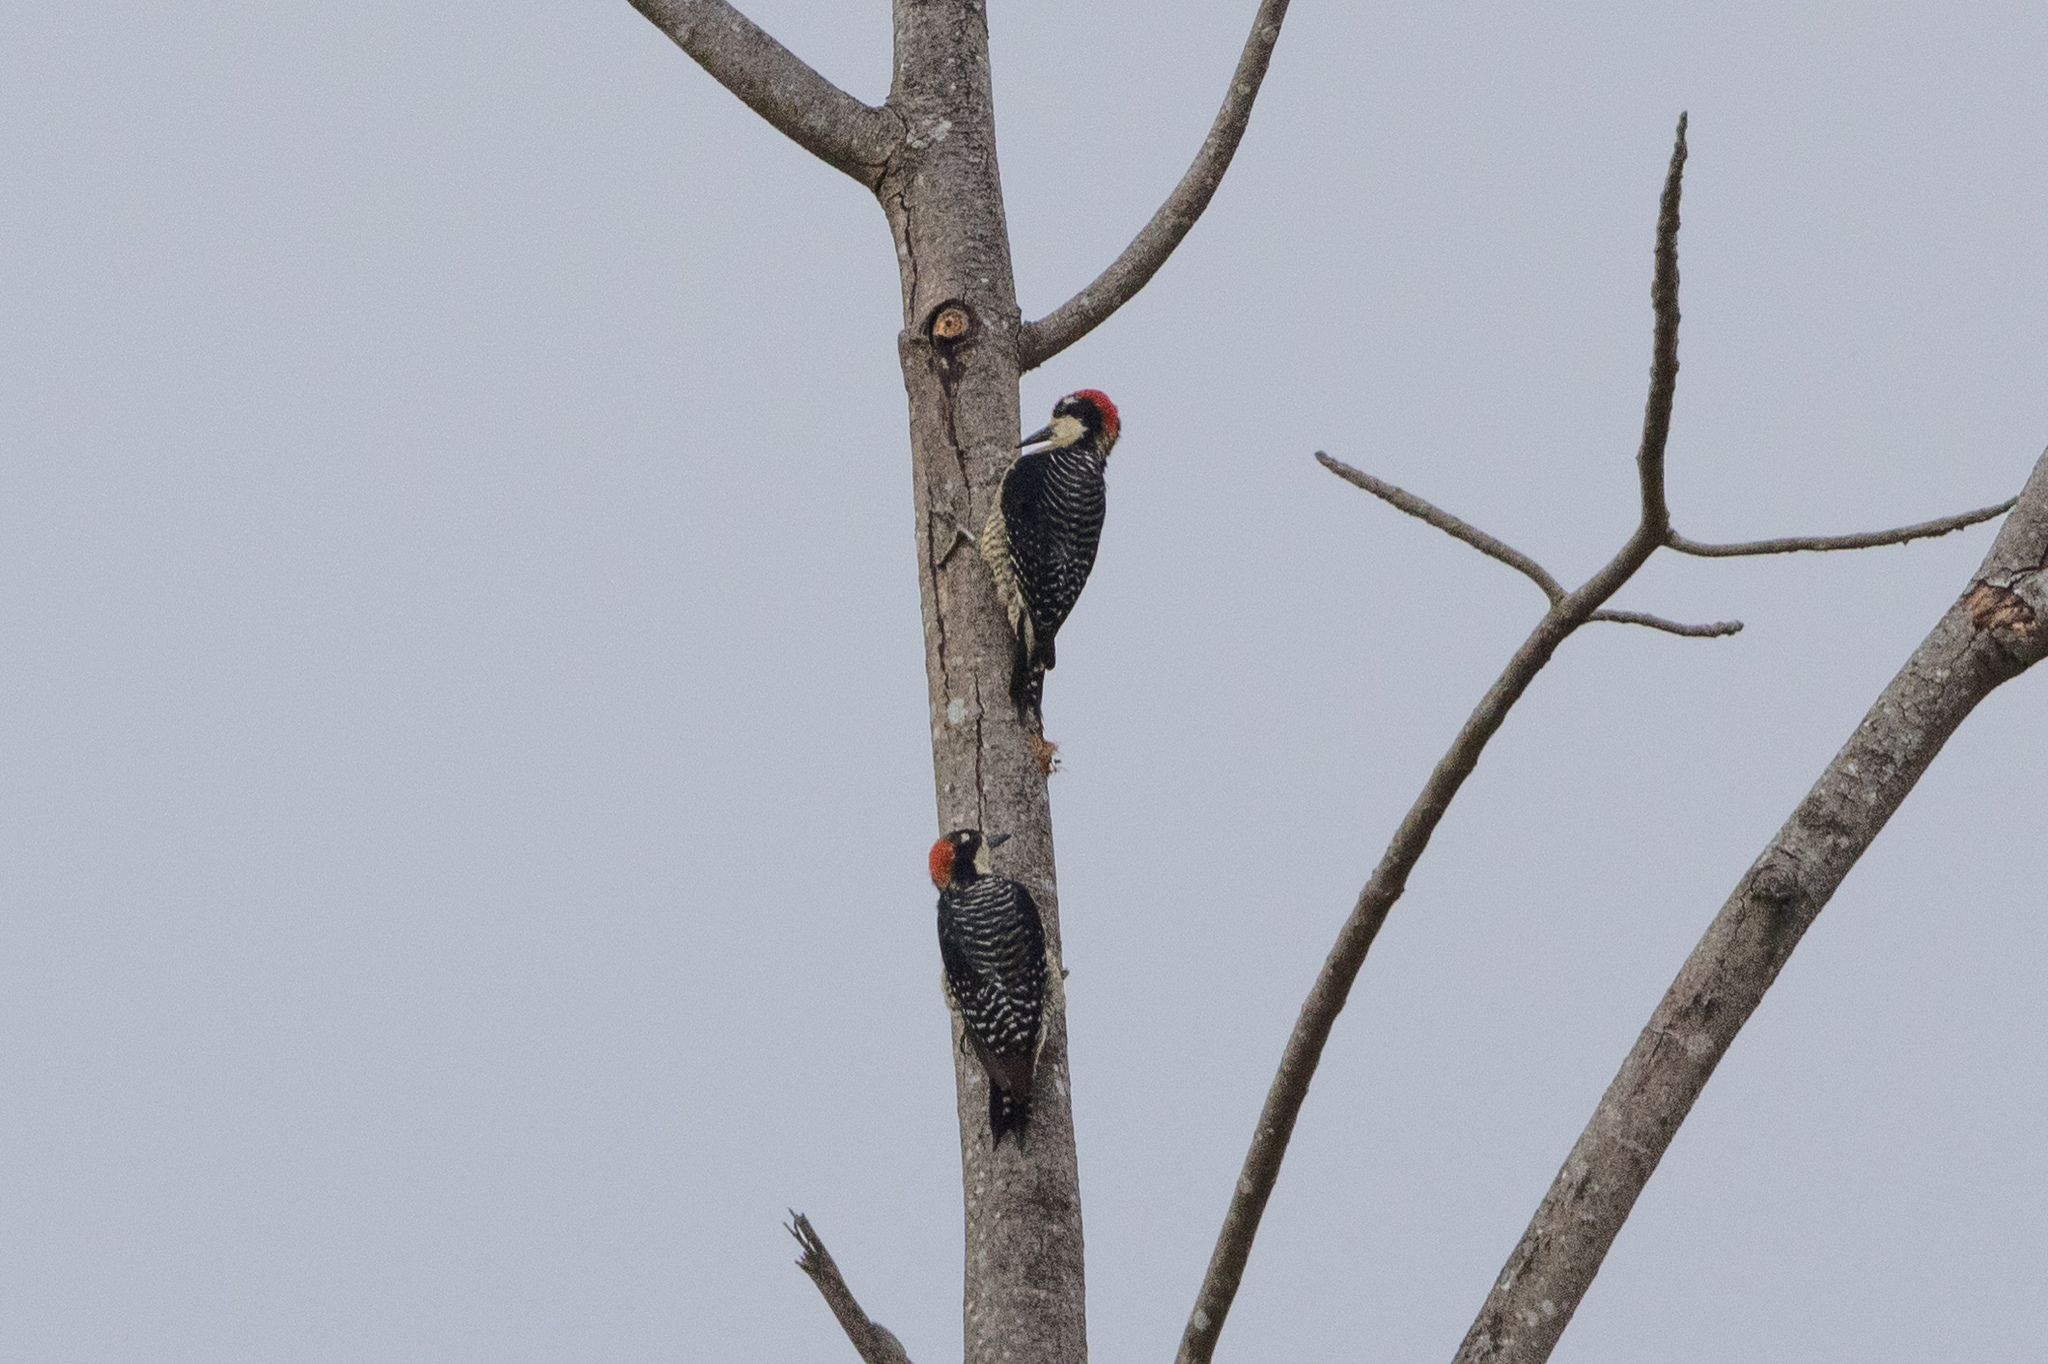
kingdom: Animalia
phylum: Chordata
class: Aves
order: Piciformes
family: Picidae
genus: Melanerpes
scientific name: Melanerpes pucherani
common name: Black-cheeked woodpecker
